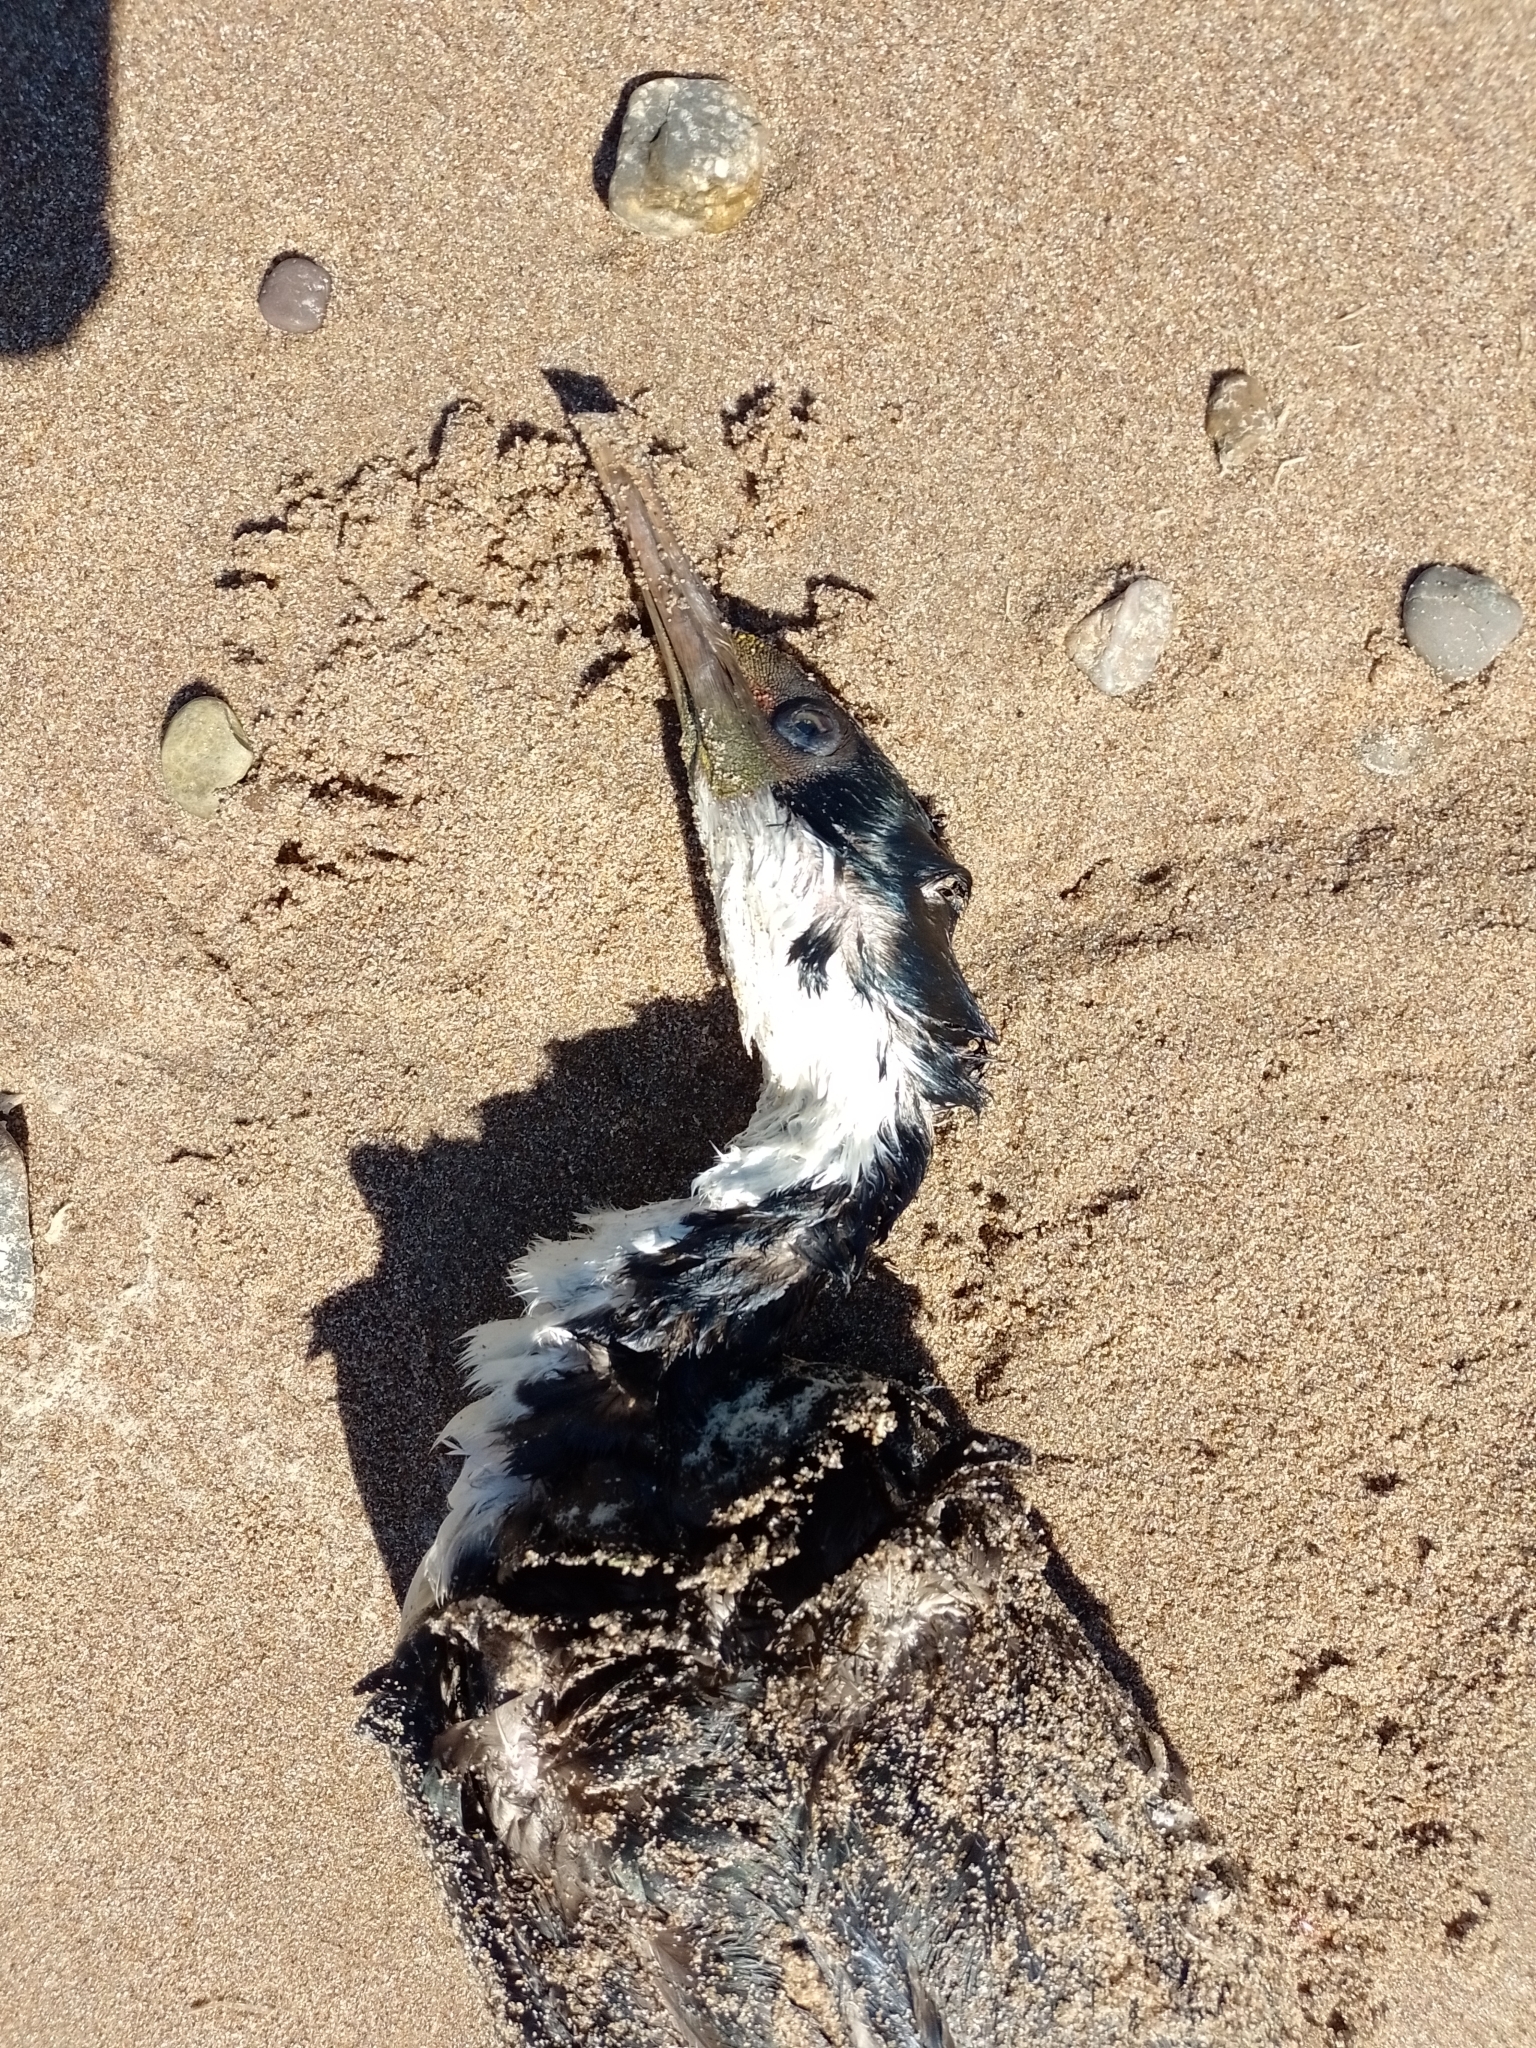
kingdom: Animalia
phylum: Chordata
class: Aves
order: Suliformes
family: Phalacrocoracidae
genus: Leucocarbo
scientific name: Leucocarbo atriceps
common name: Imperial shag
